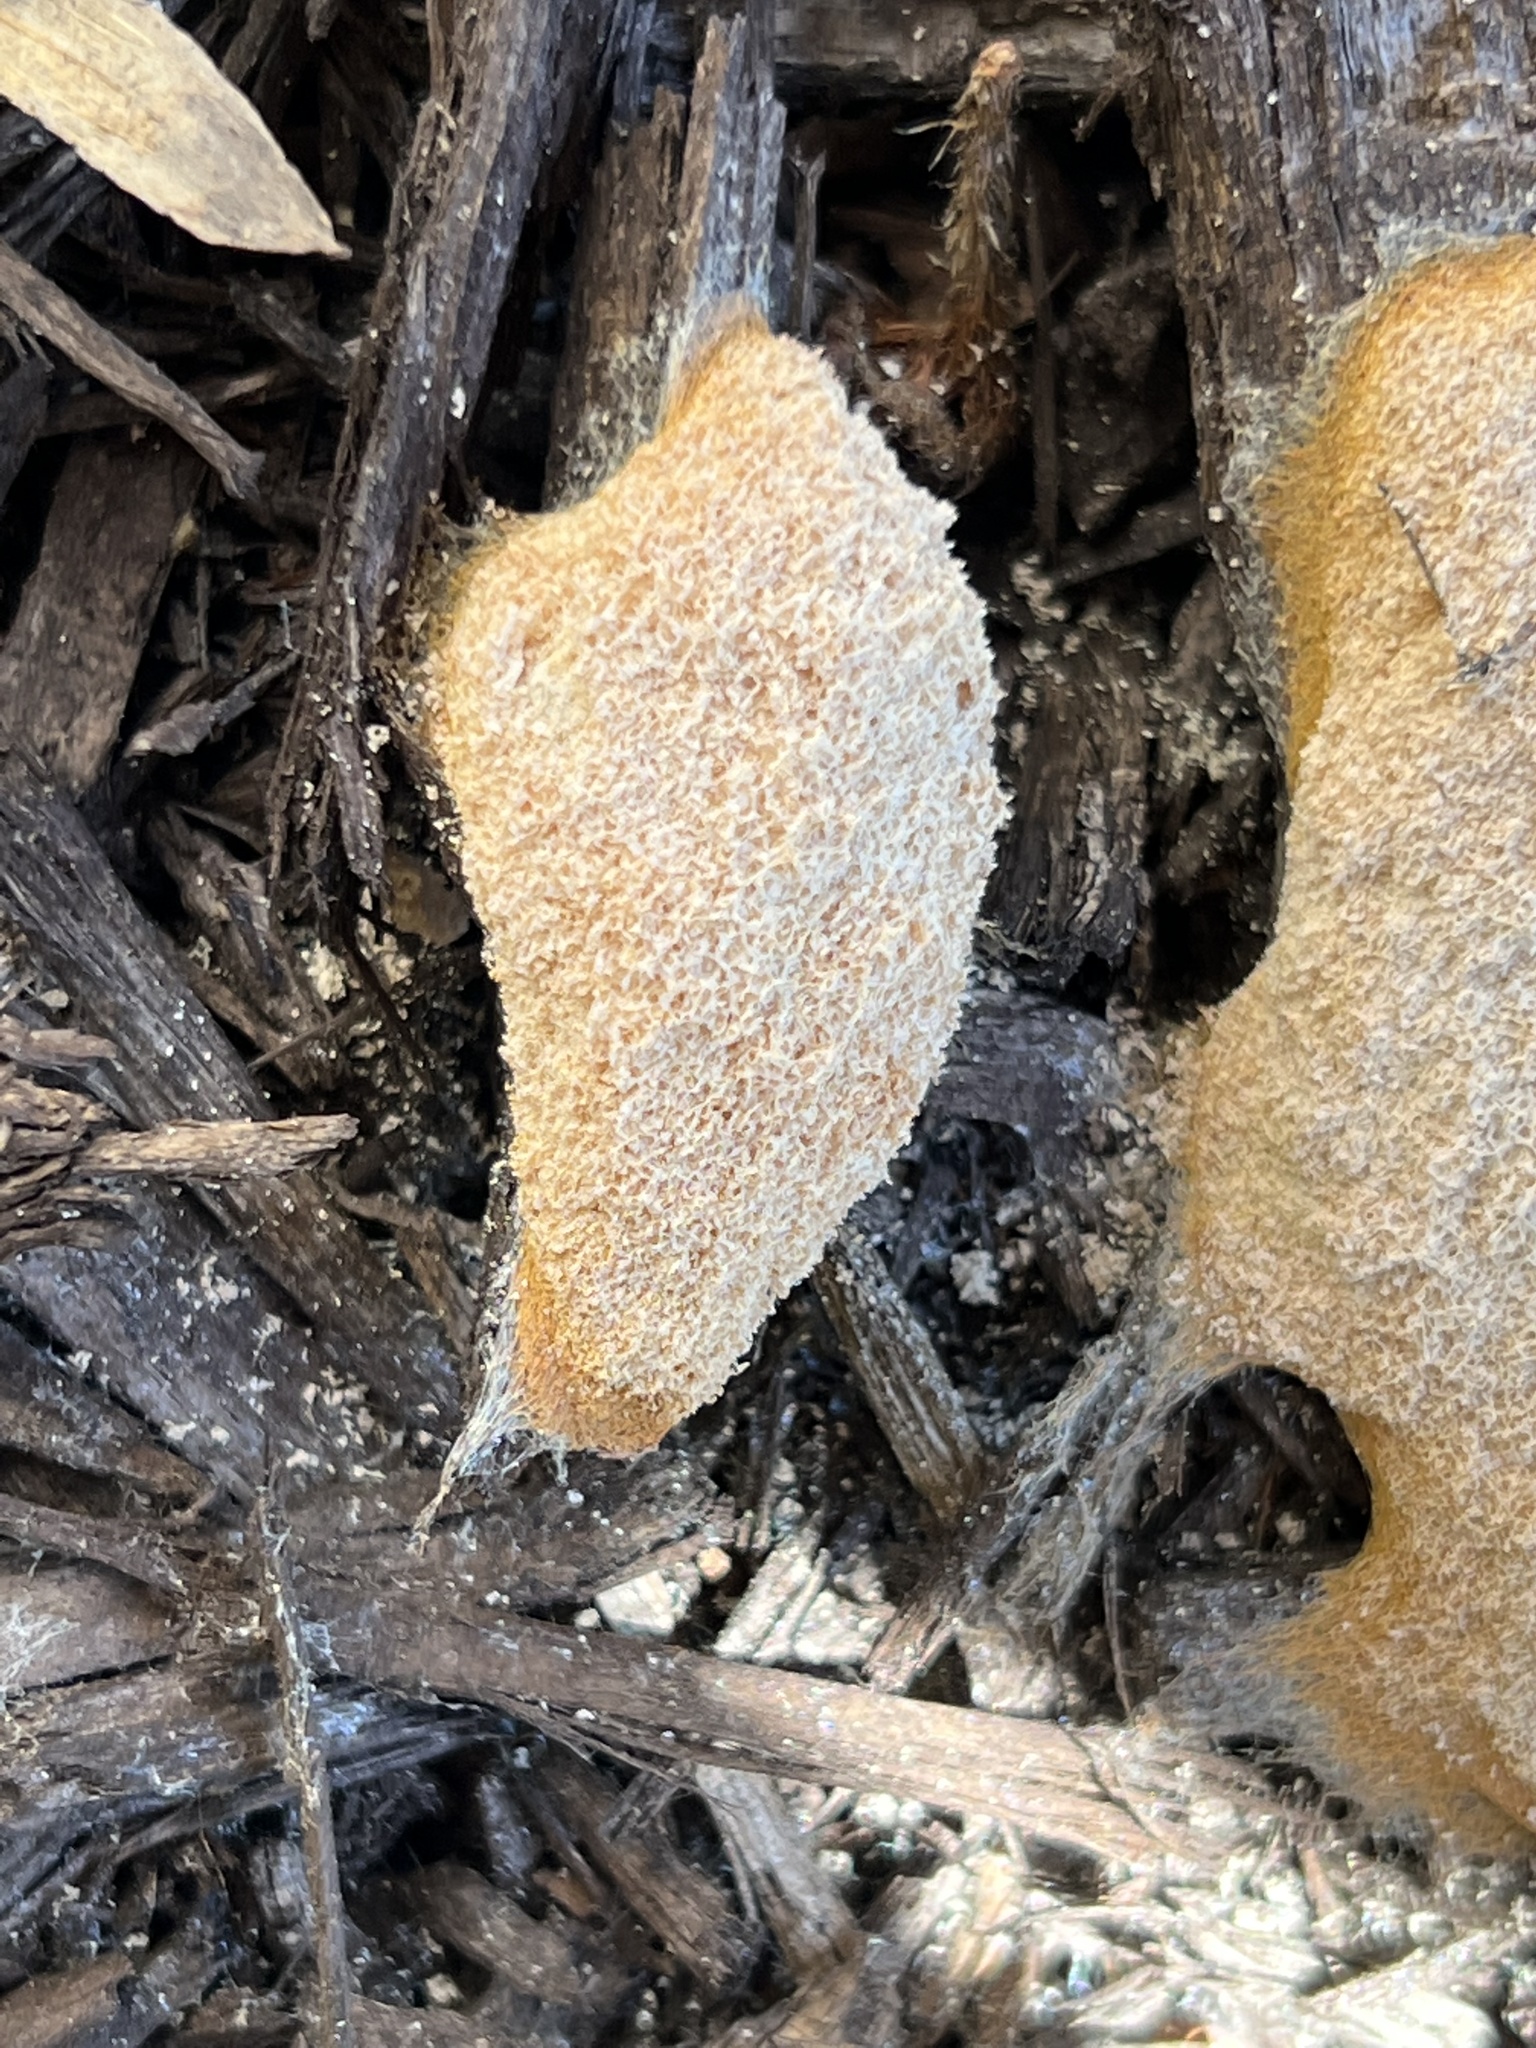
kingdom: Protozoa
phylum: Mycetozoa
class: Myxomycetes
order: Physarales
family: Physaraceae
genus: Fuligo
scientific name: Fuligo septica
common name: Dog vomit slime mold
